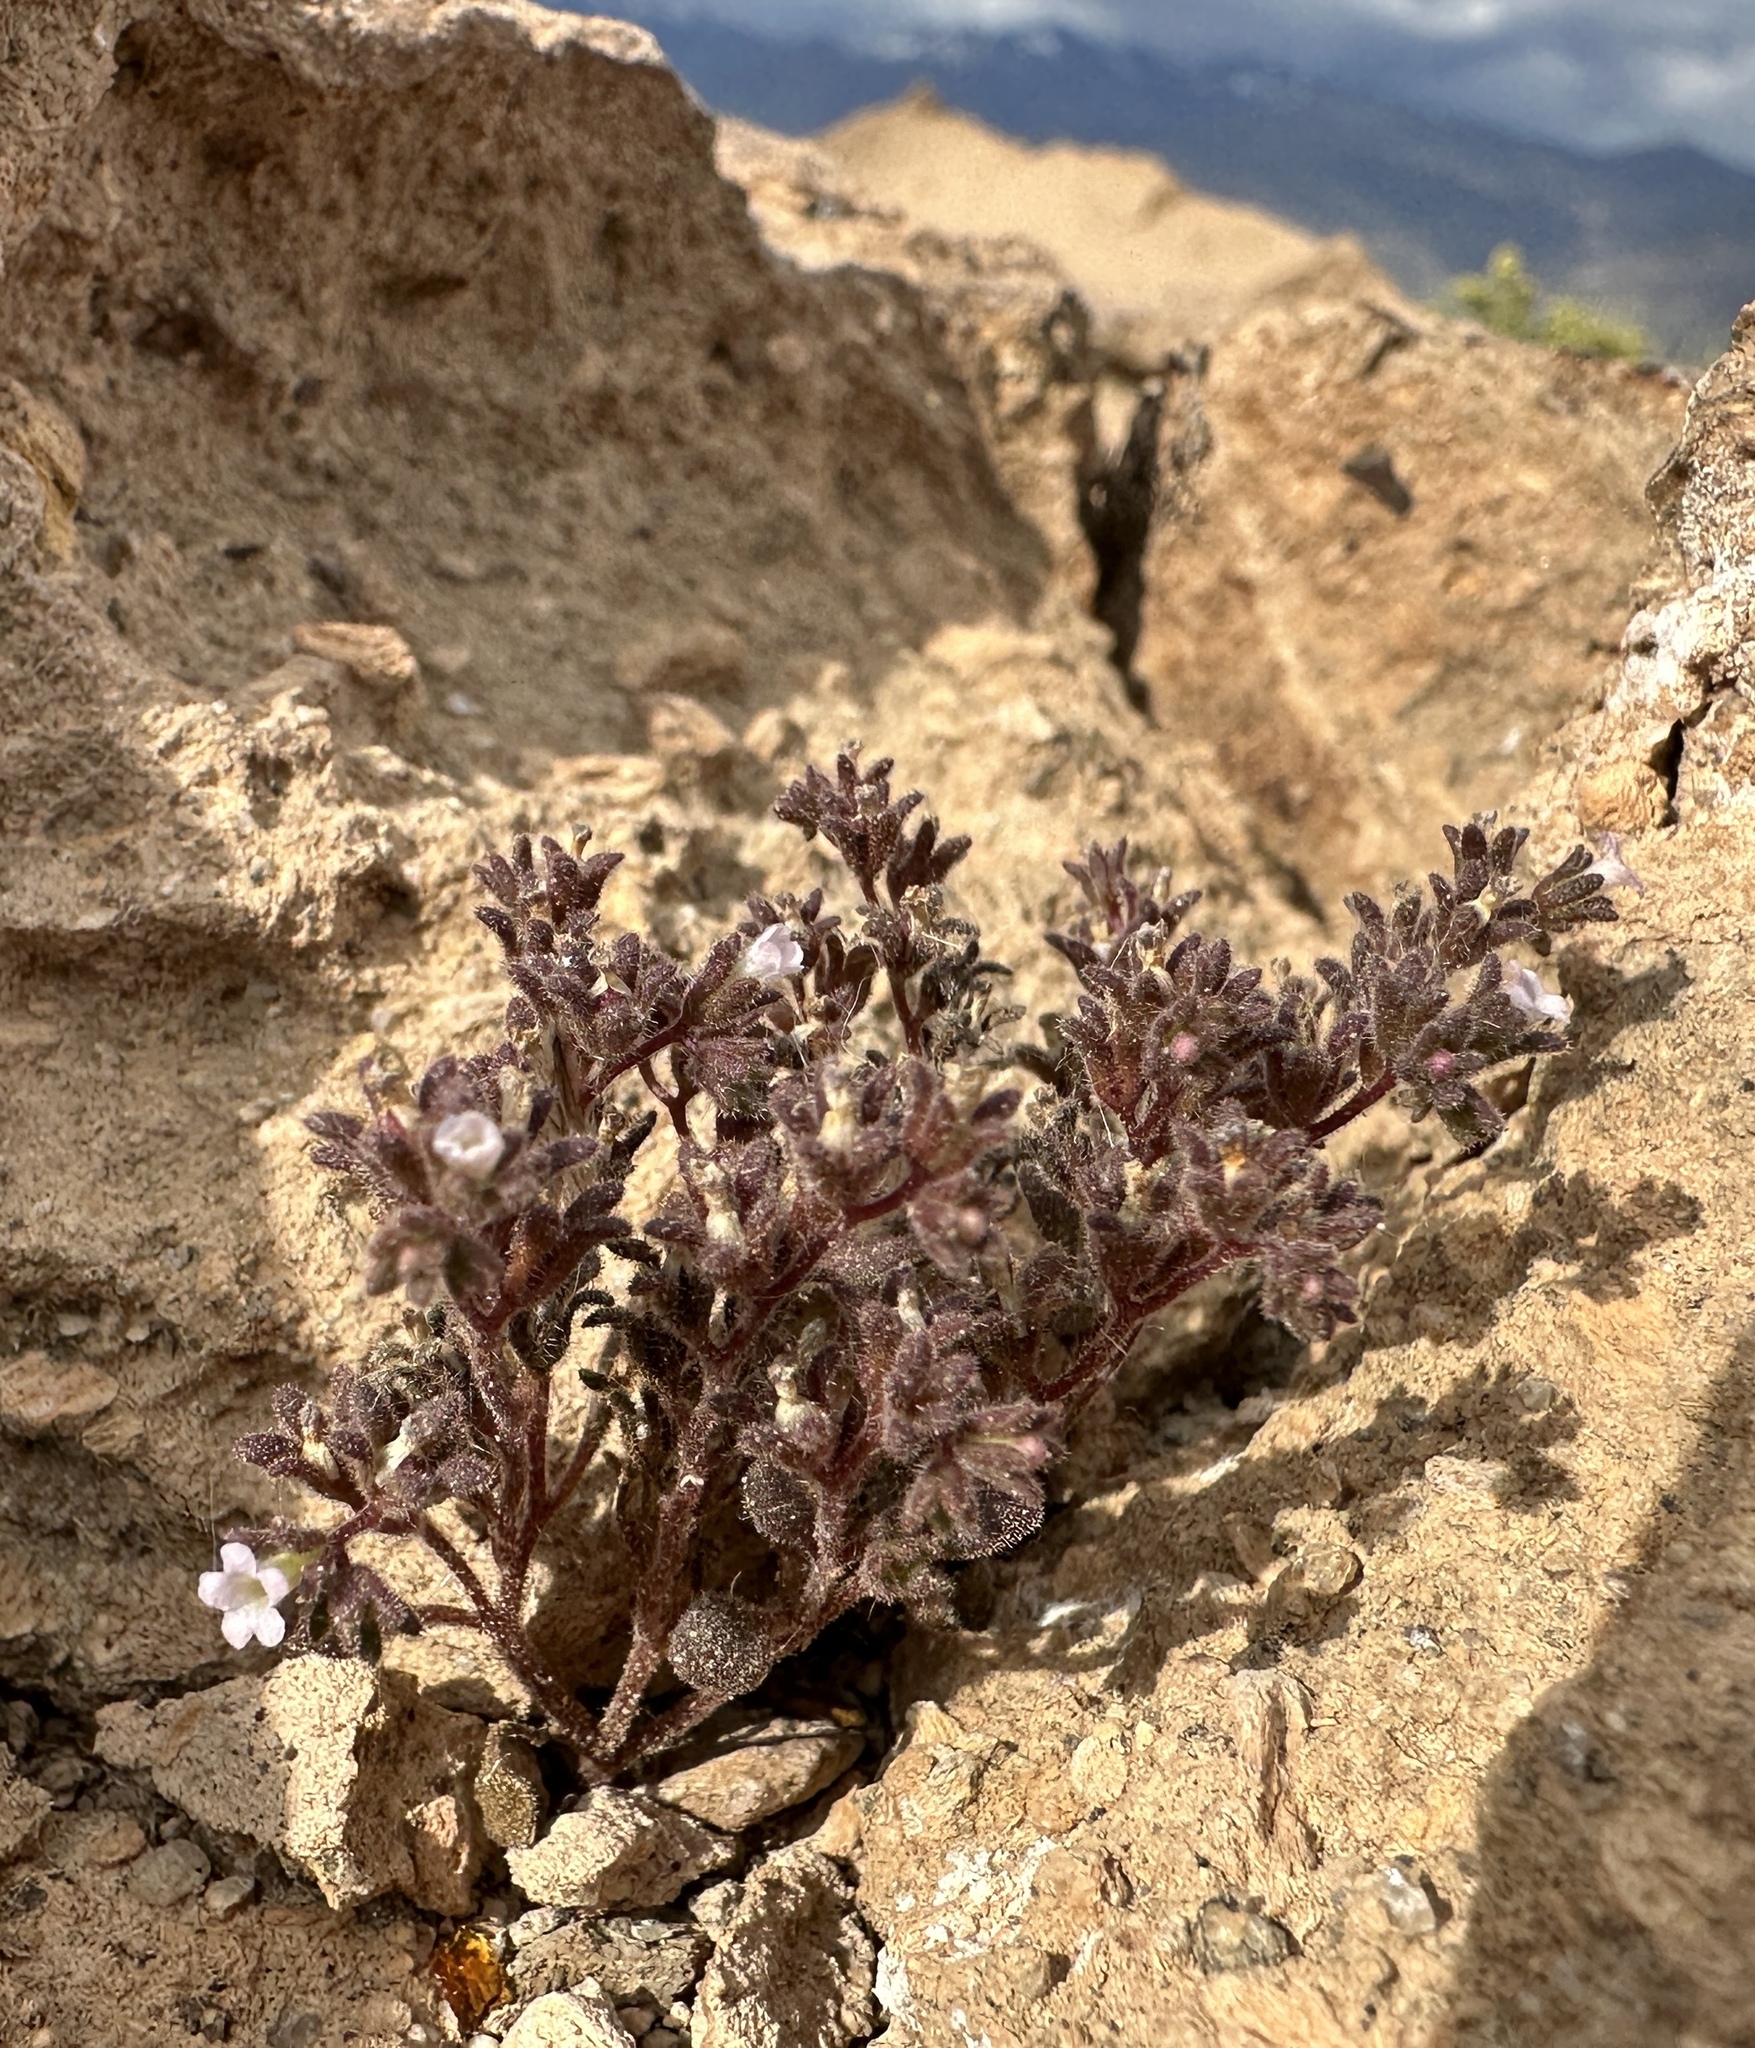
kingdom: Plantae
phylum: Tracheophyta
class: Magnoliopsida
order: Boraginales
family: Hydrophyllaceae
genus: Phacelia
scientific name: Phacelia saxicola
